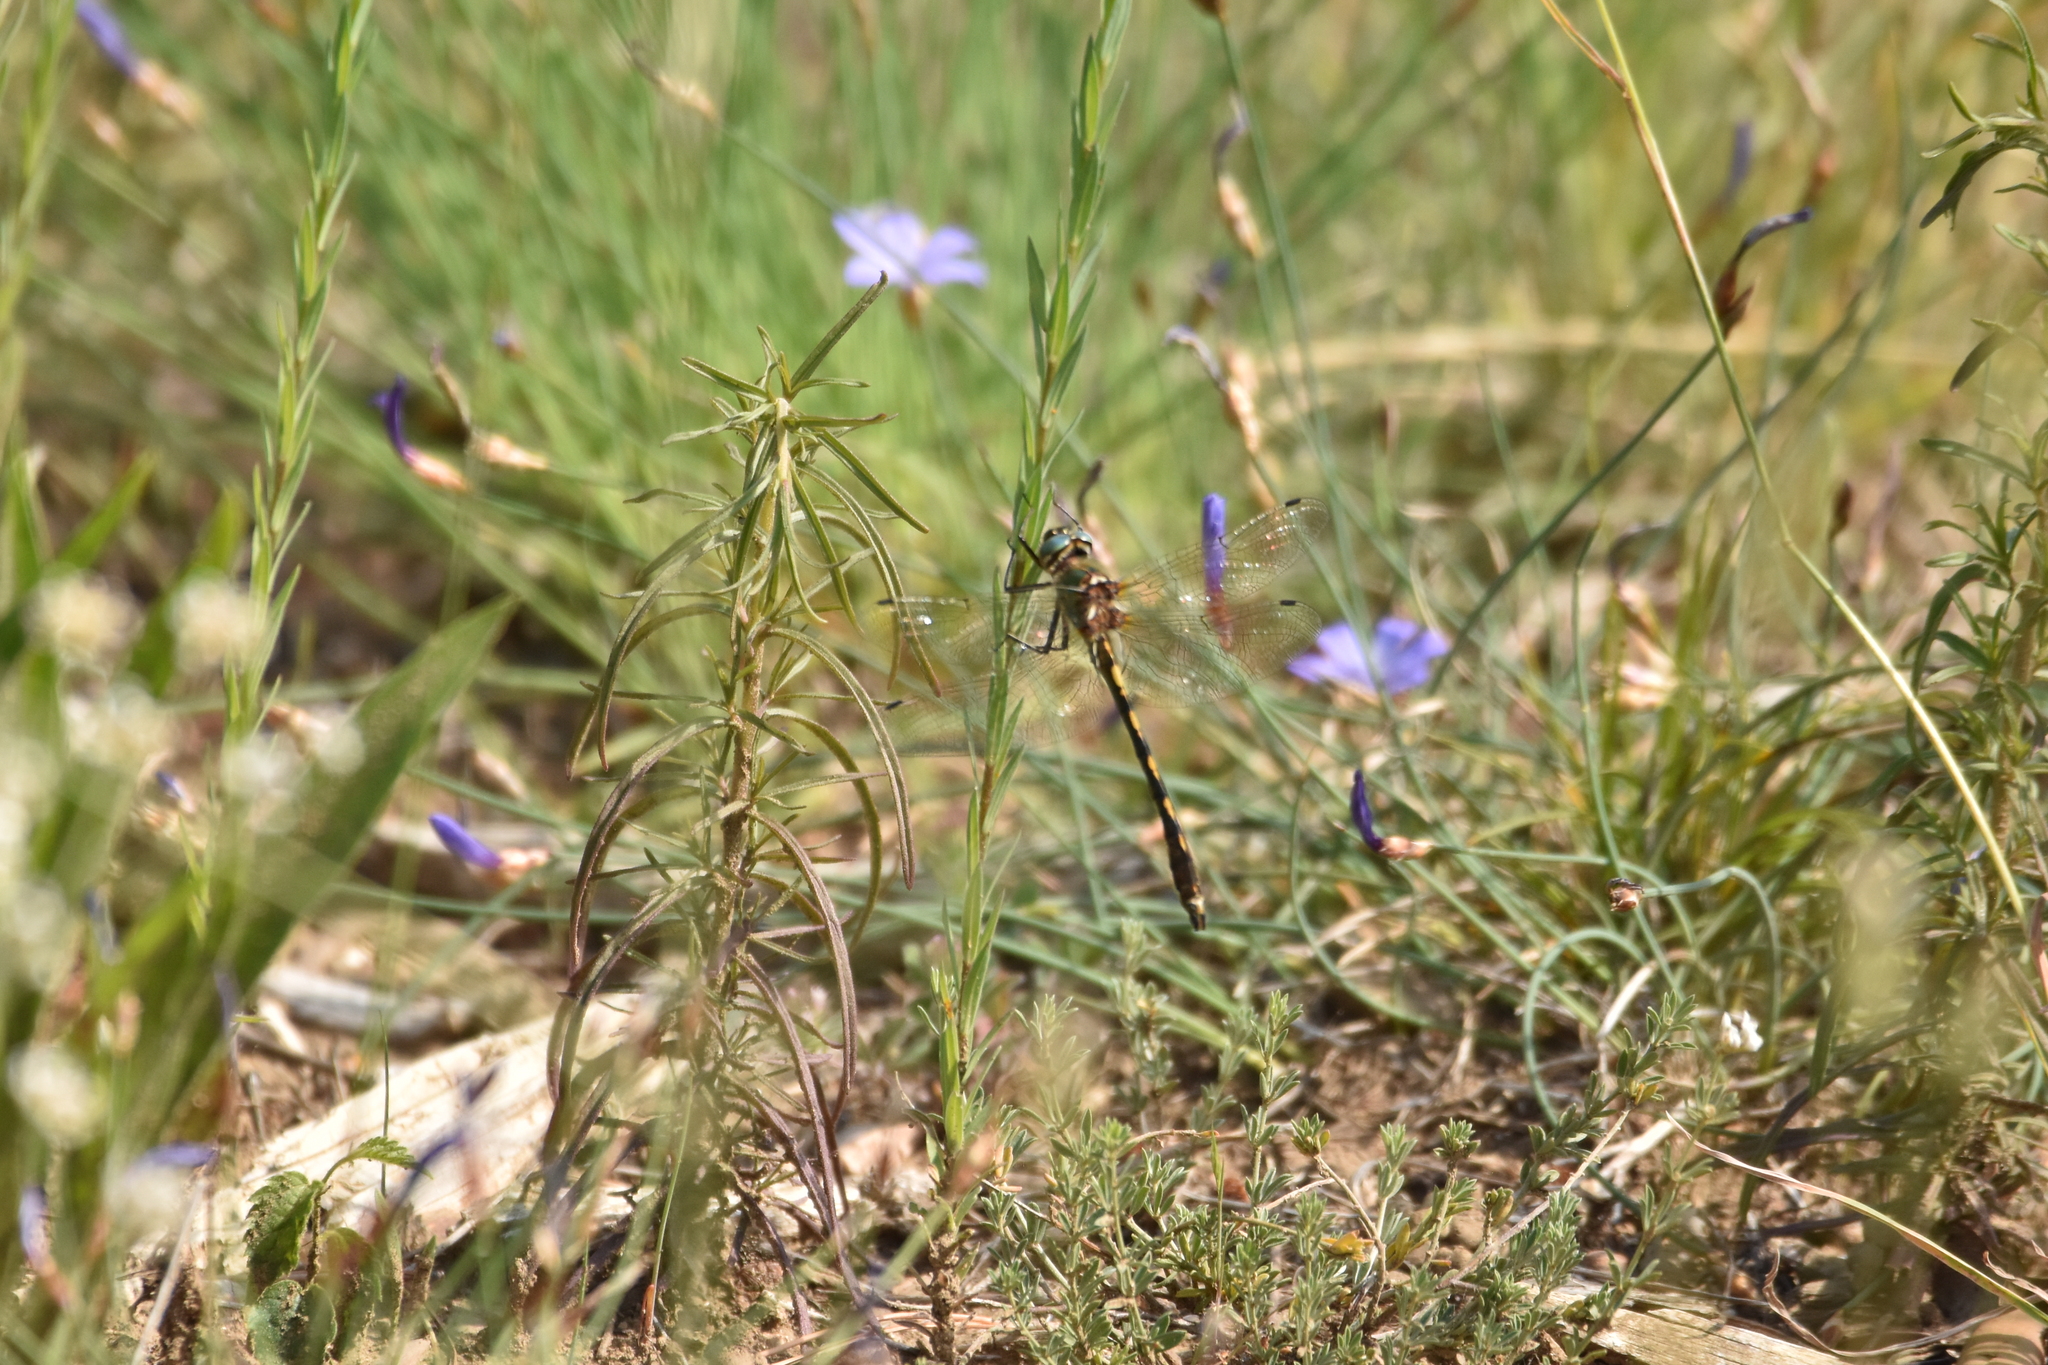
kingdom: Animalia
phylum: Arthropoda
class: Insecta
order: Odonata
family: Corduliidae
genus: Oxygastra
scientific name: Oxygastra curtisii
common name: Orange-spotted emerald
